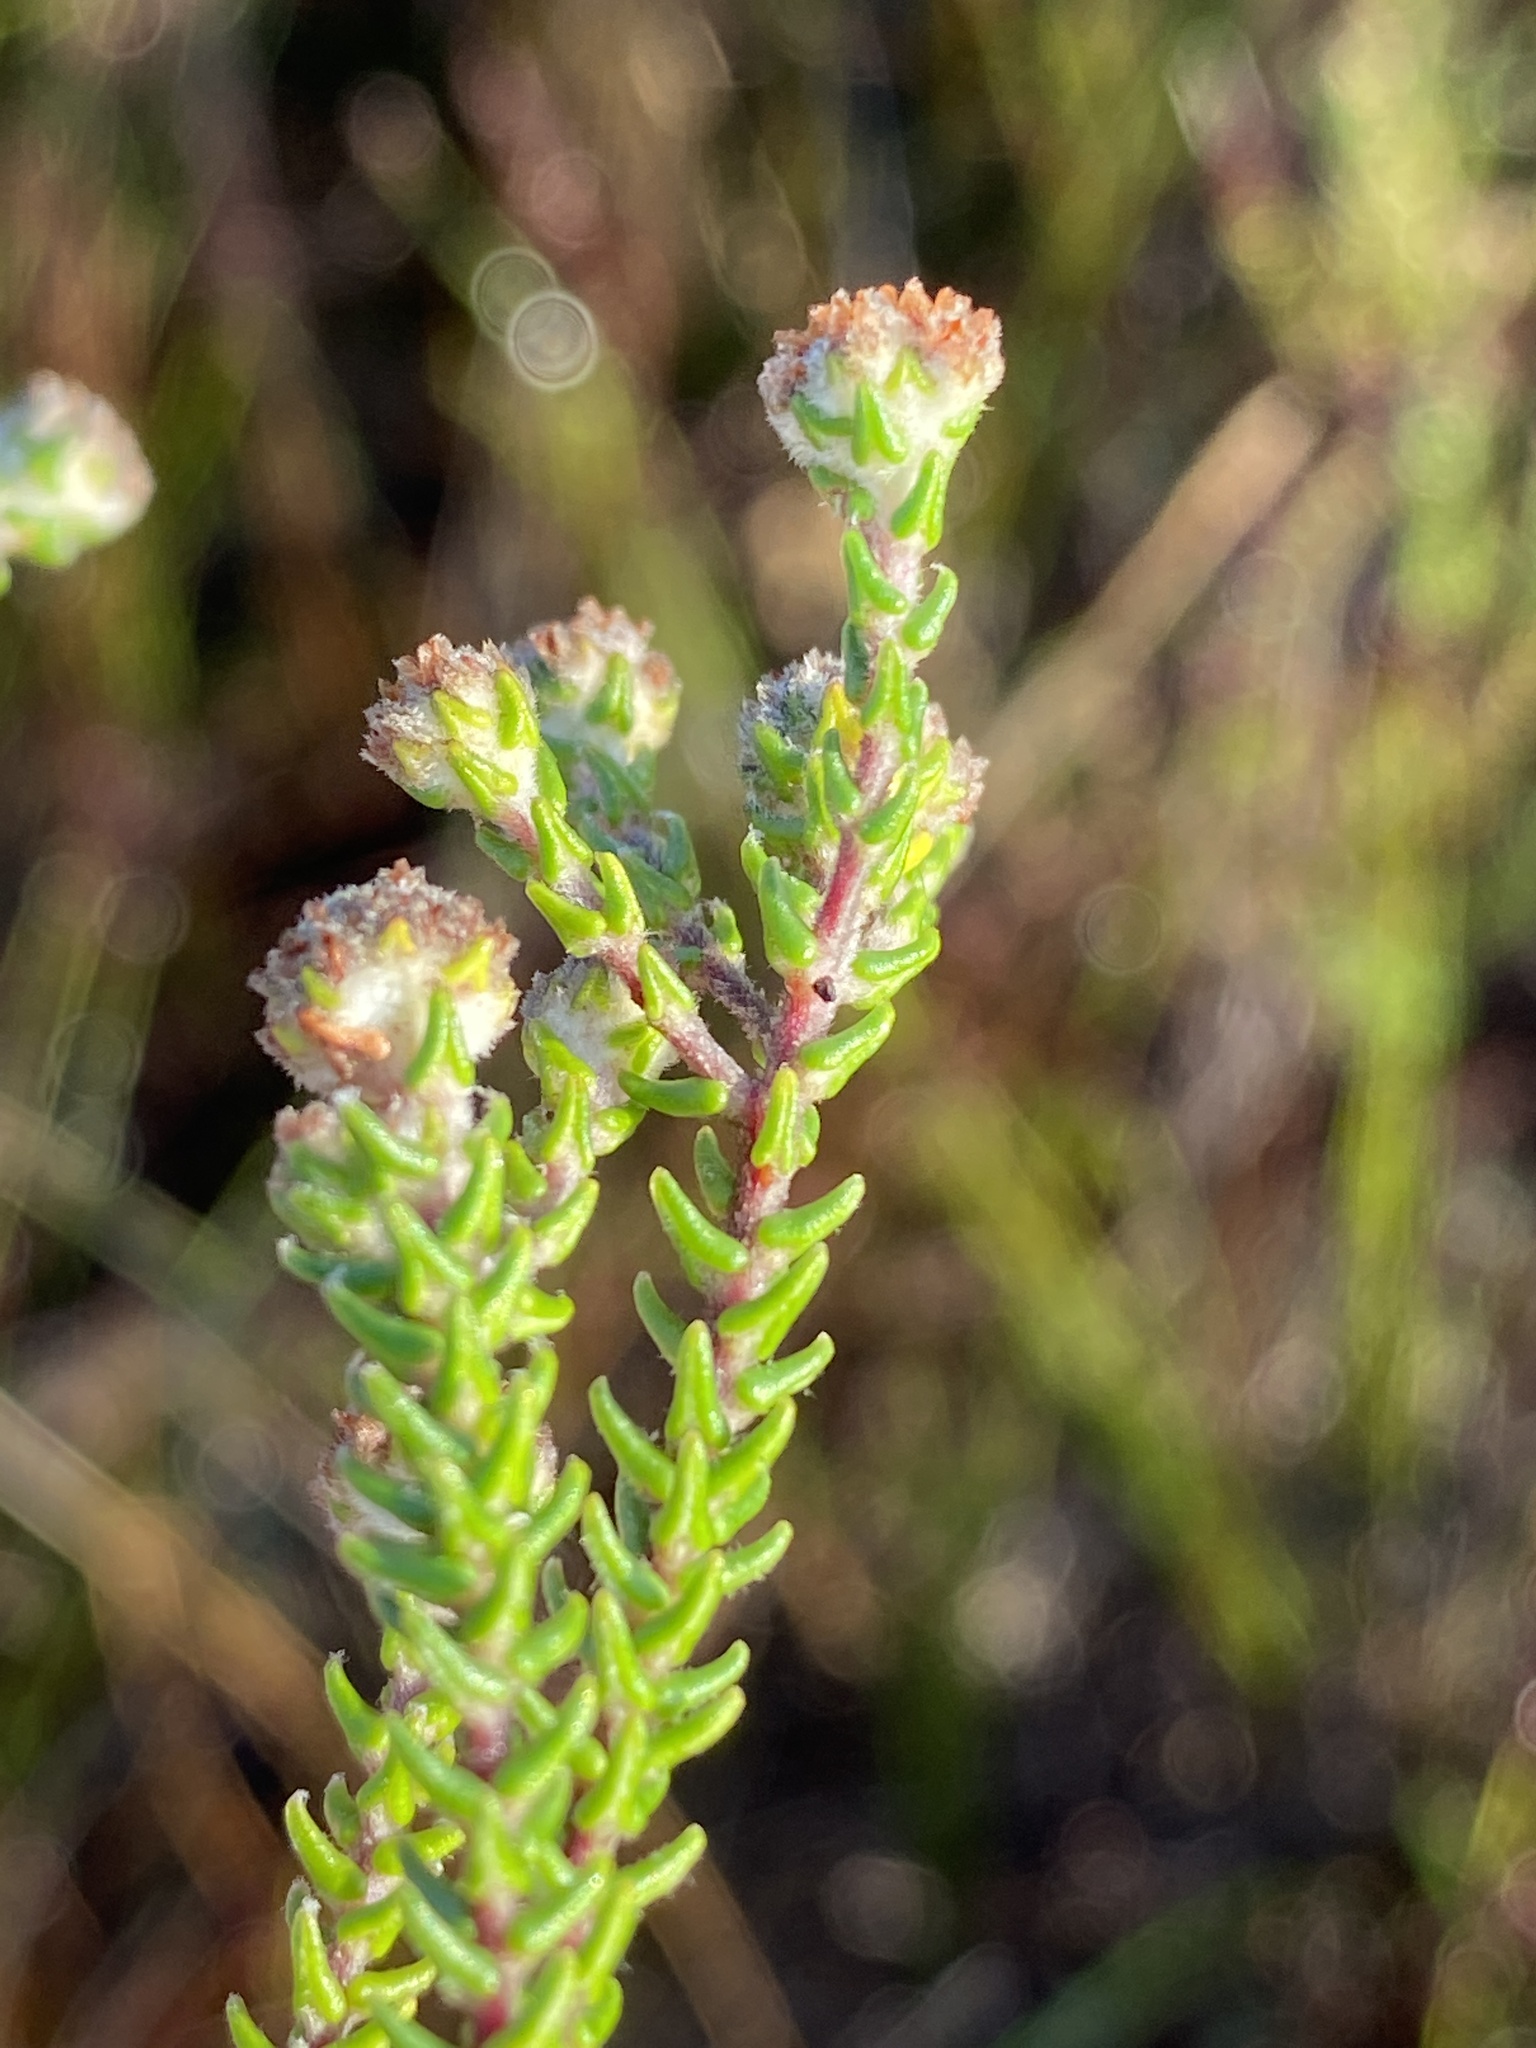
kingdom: Plantae
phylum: Tracheophyta
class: Magnoliopsida
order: Rosales
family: Rhamnaceae
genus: Phylica
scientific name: Phylica incurvata
